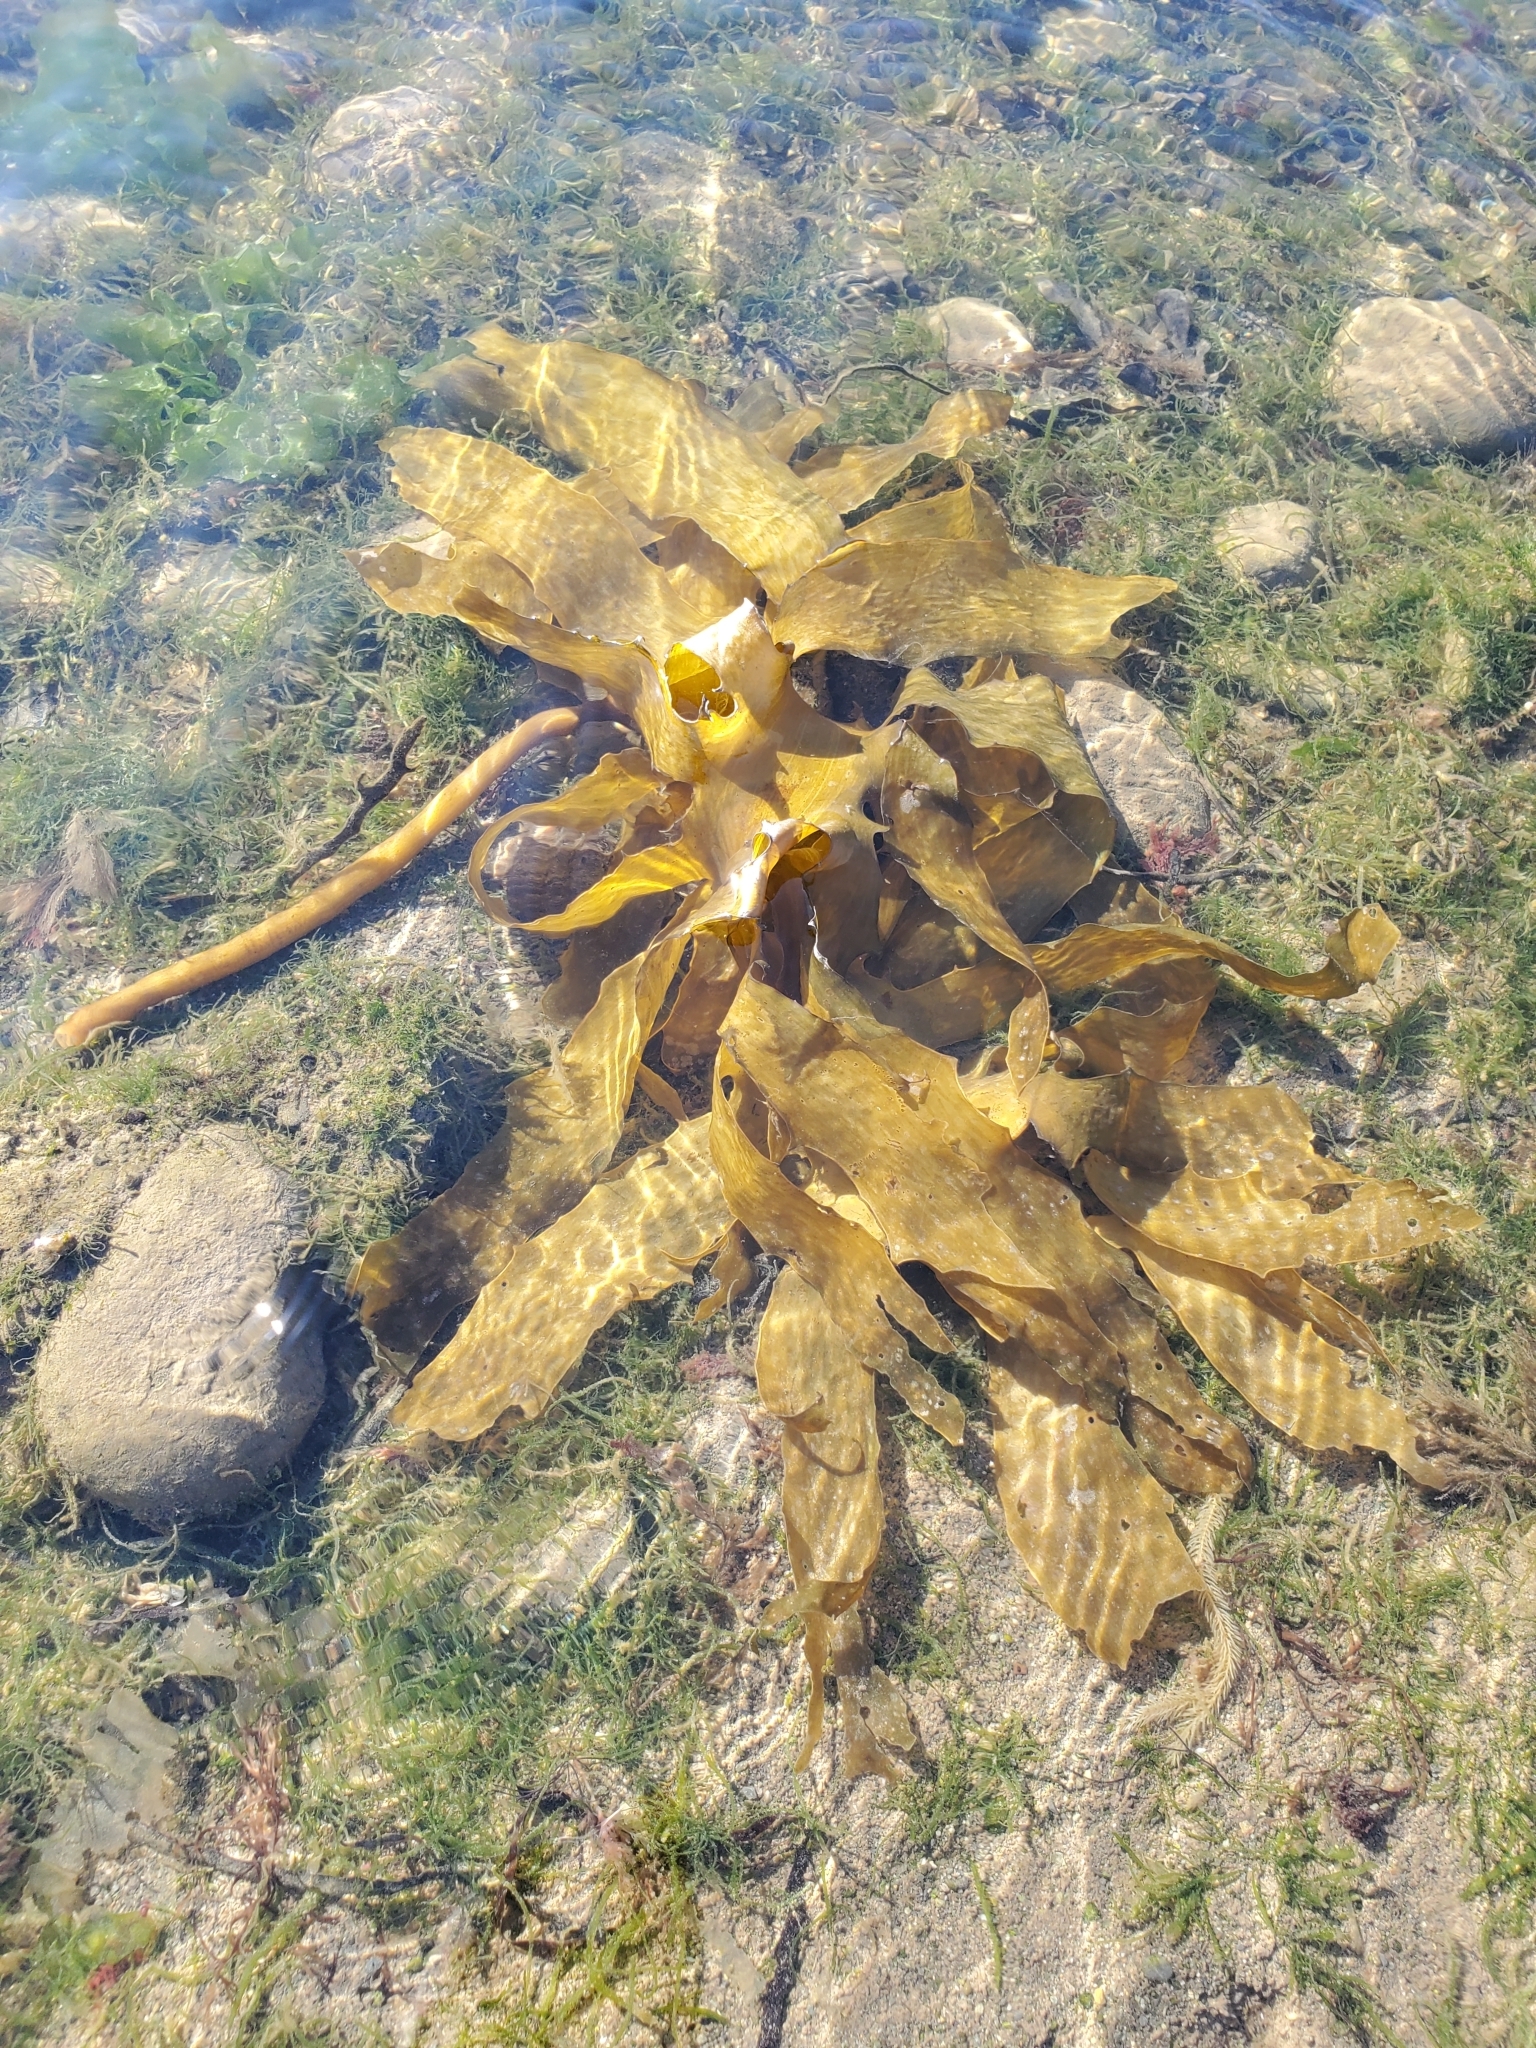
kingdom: Chromista
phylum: Ochrophyta
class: Phaeophyceae
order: Laminariales
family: Lessoniaceae
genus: Ecklonia
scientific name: Ecklonia radiata
